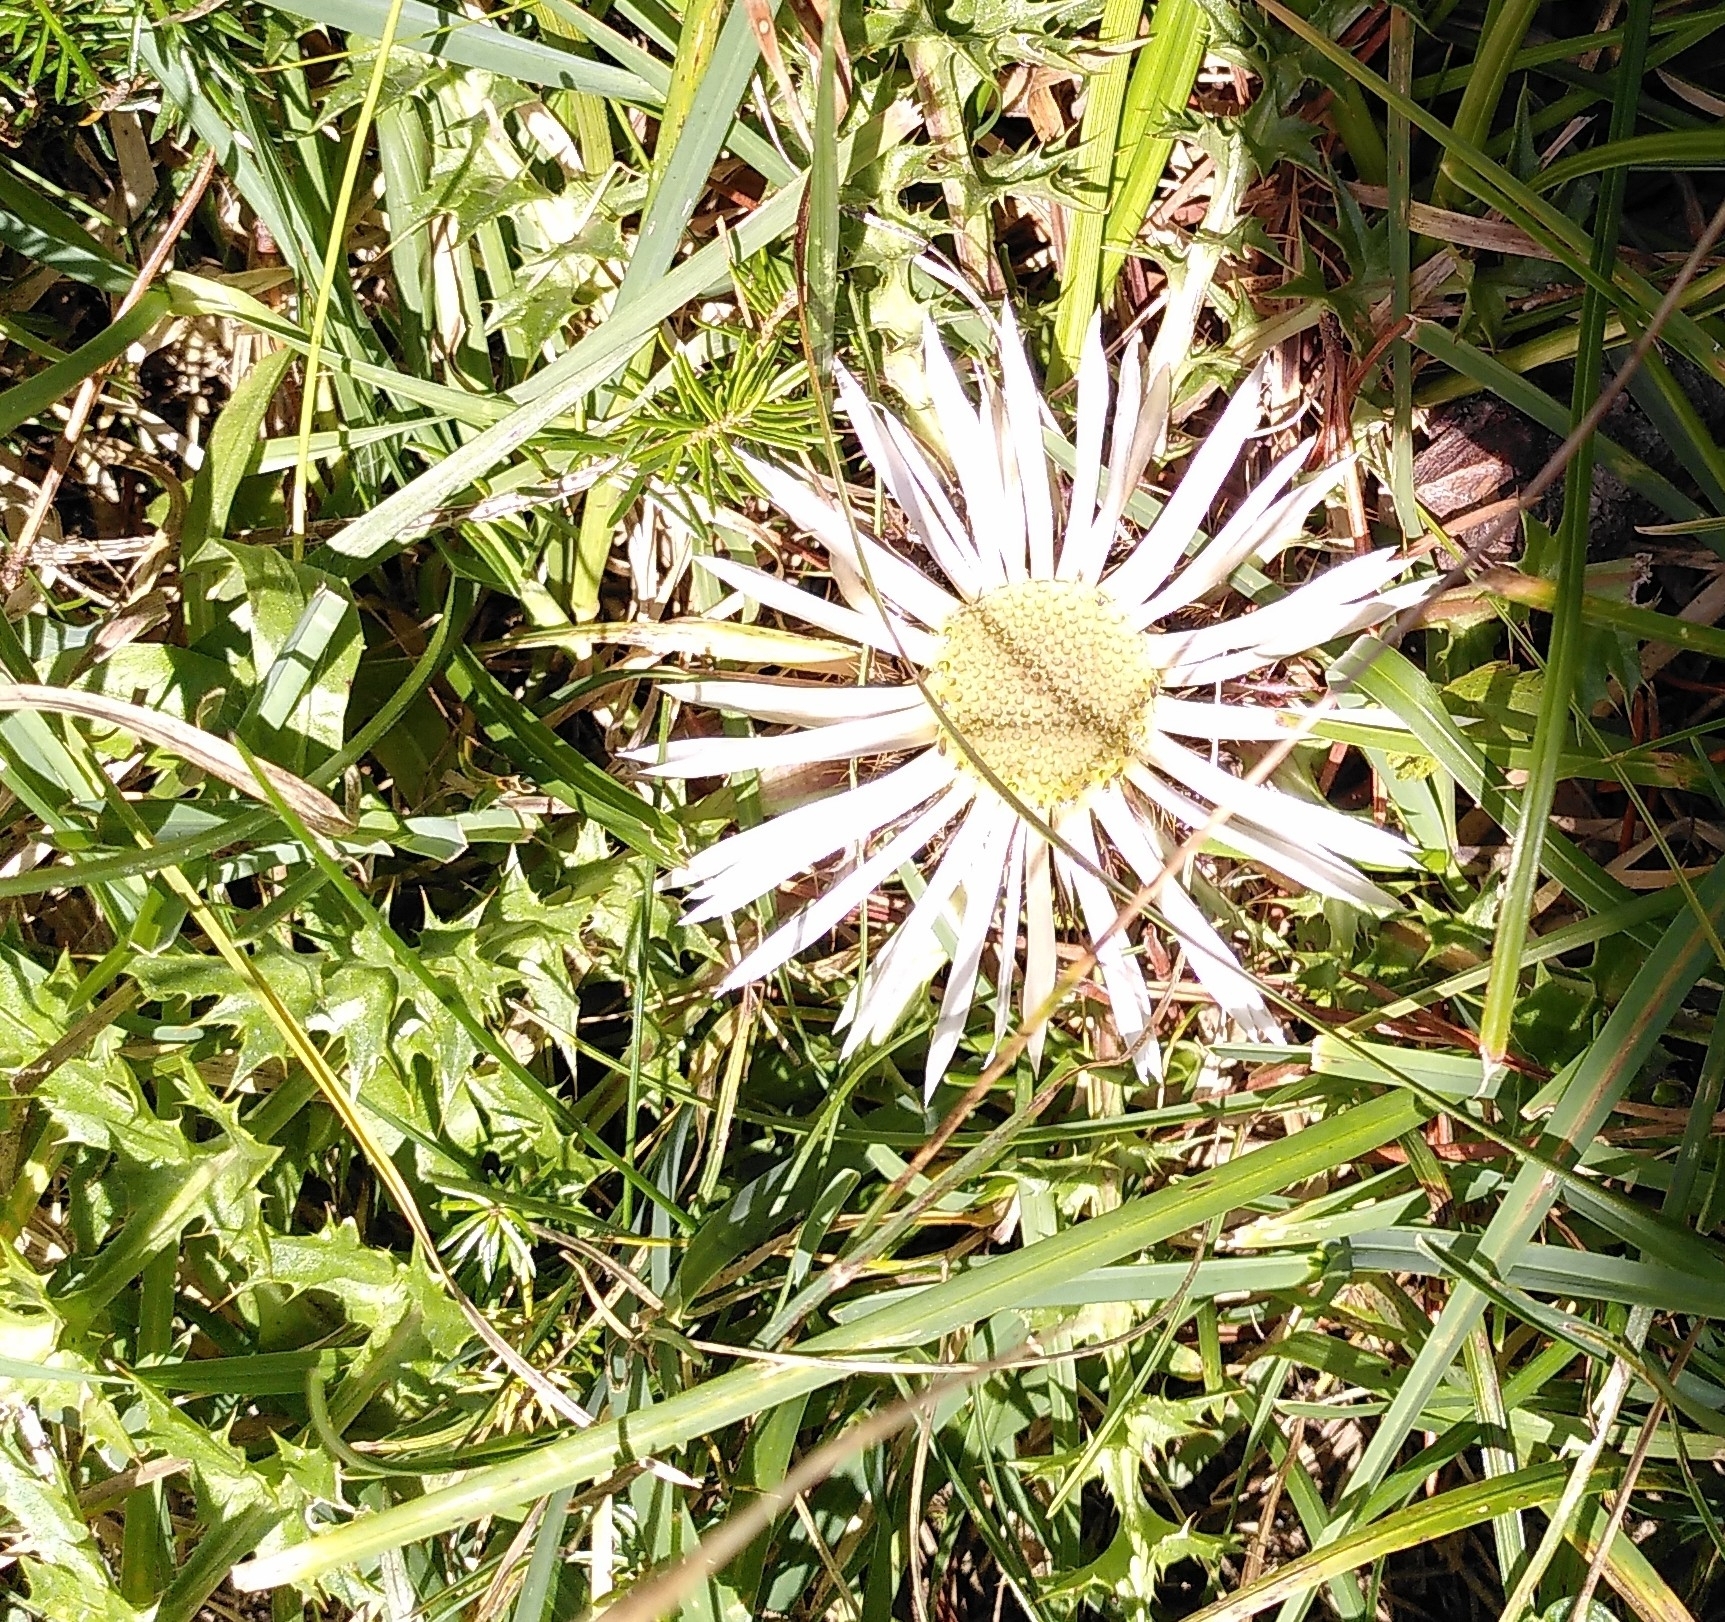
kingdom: Plantae
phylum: Tracheophyta
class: Magnoliopsida
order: Asterales
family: Asteraceae
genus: Carlina
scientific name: Carlina acaulis
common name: Stemless carline thistle
